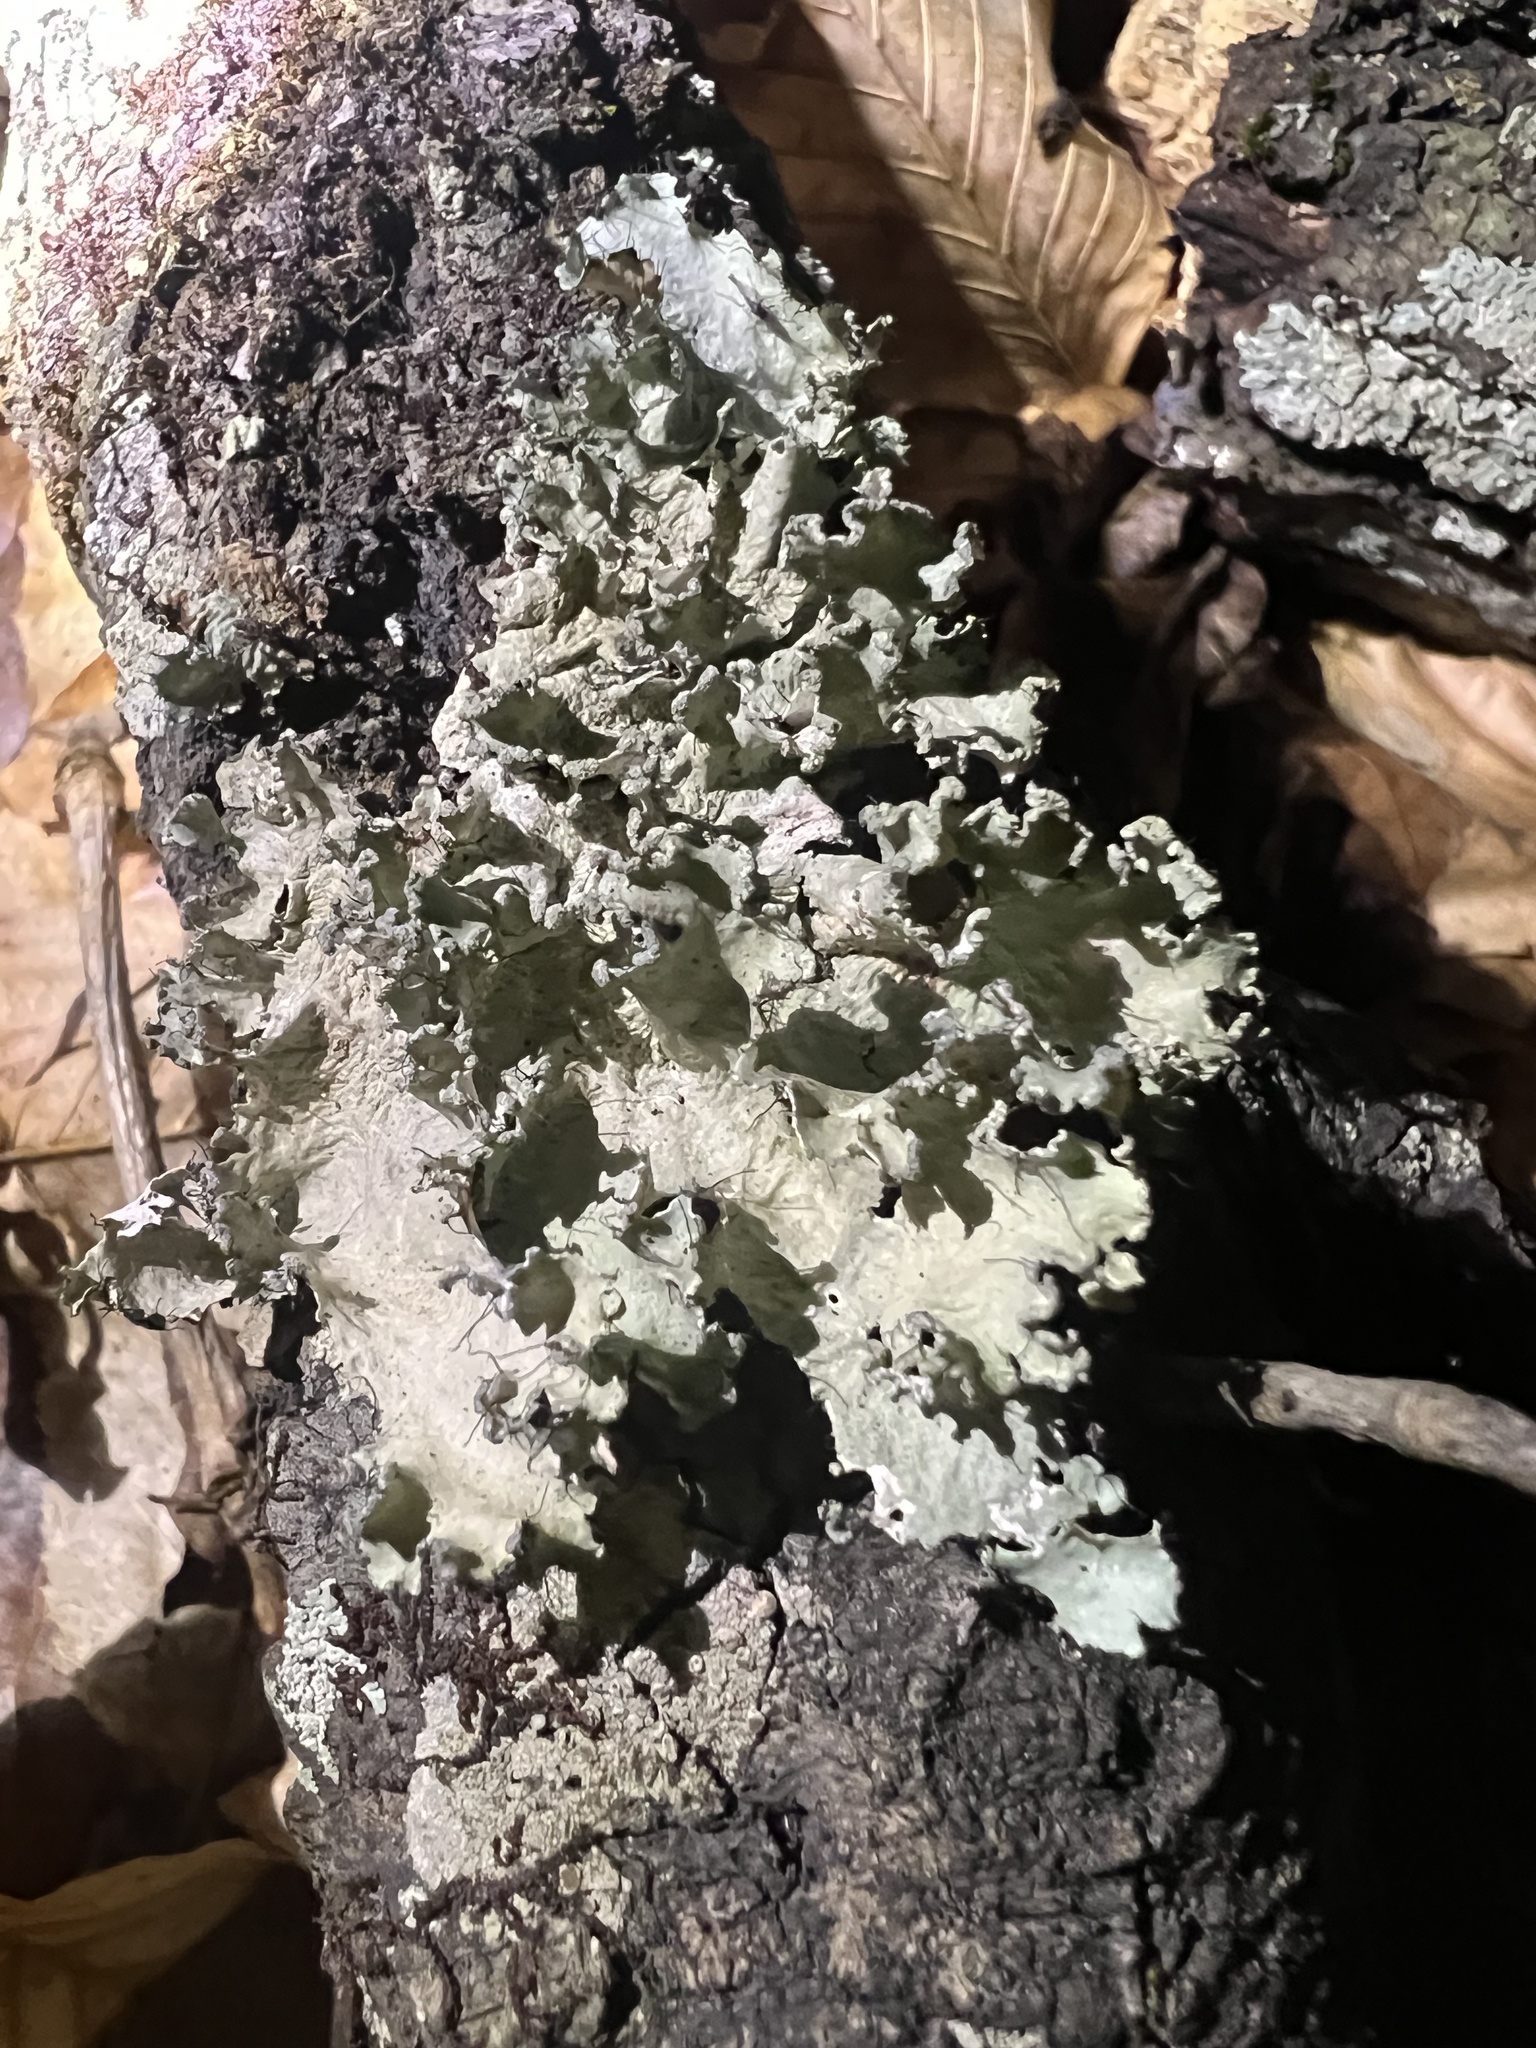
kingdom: Fungi
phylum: Ascomycota
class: Lecanoromycetes
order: Lecanorales
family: Parmeliaceae
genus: Parmotrema
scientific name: Parmotrema hypotropum
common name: Powdered ruffle lichen
